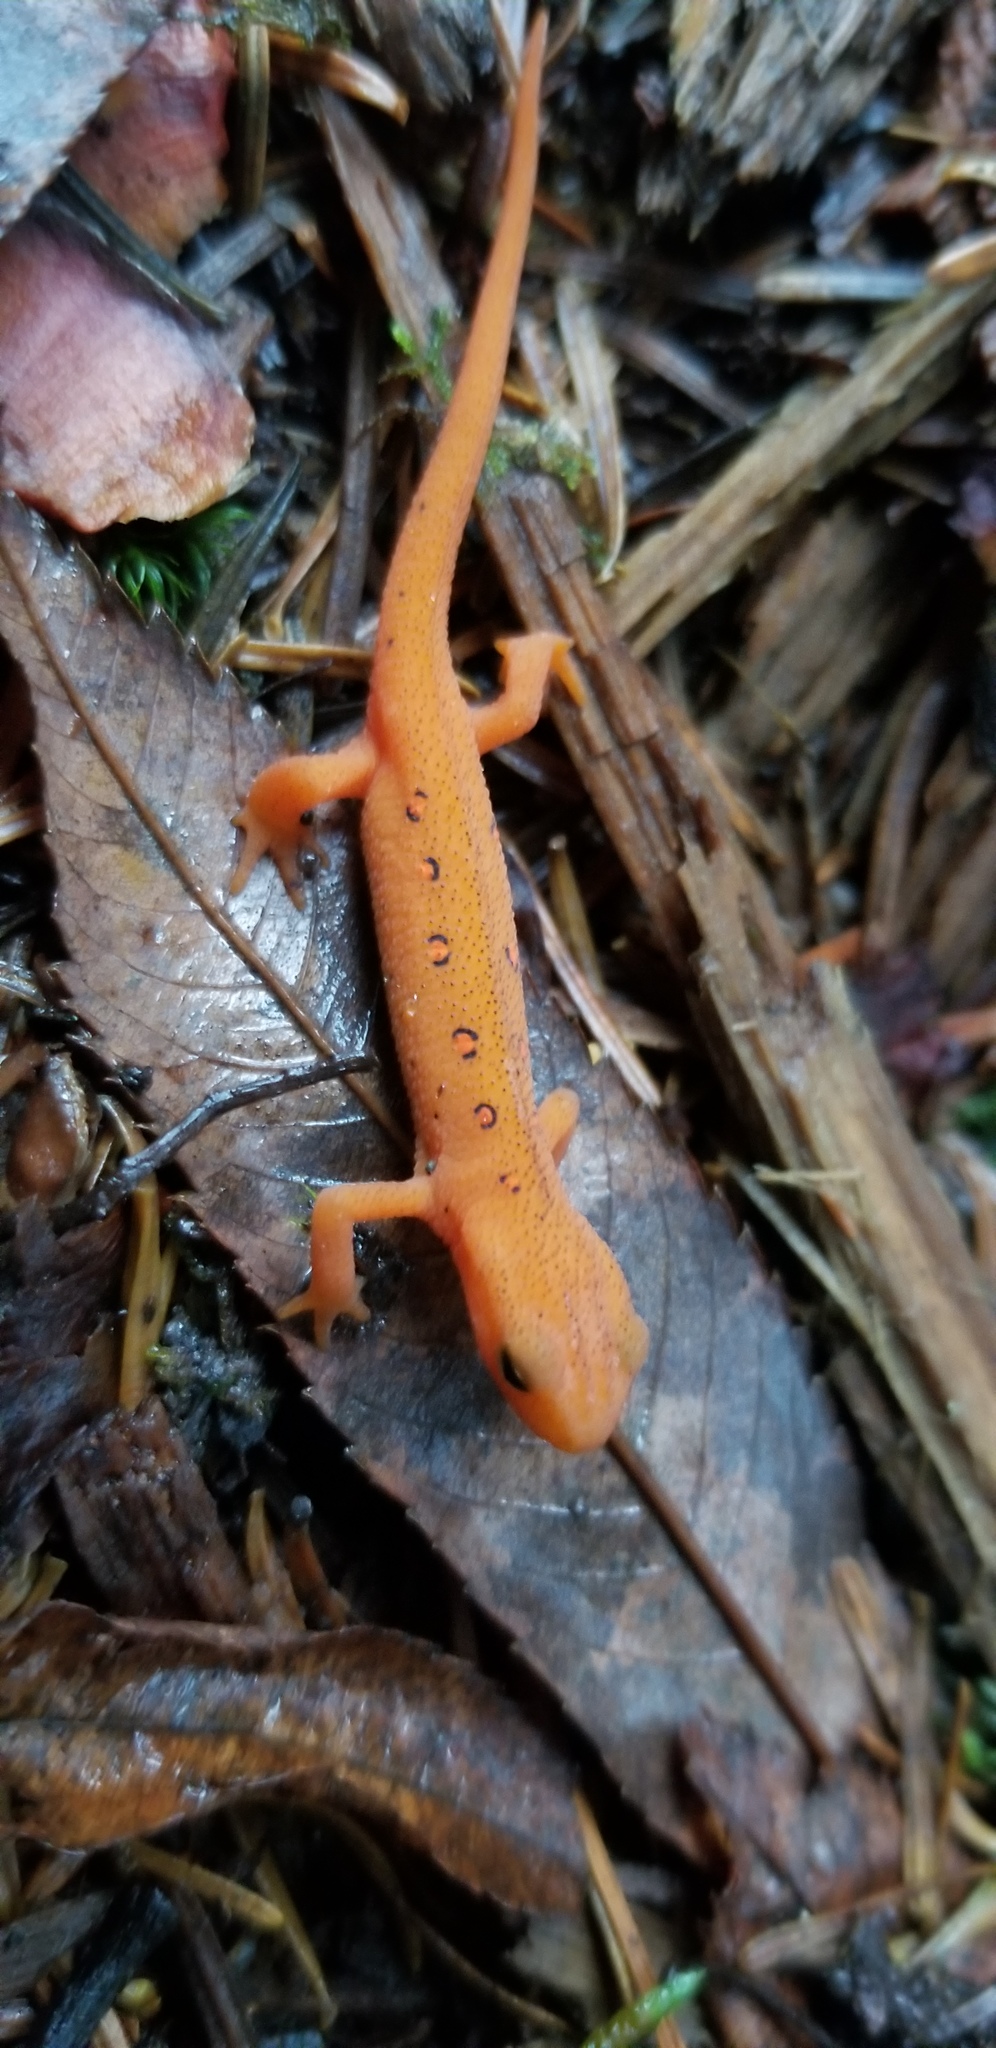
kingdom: Animalia
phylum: Chordata
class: Amphibia
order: Caudata
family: Salamandridae
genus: Notophthalmus
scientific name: Notophthalmus viridescens
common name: Eastern newt
